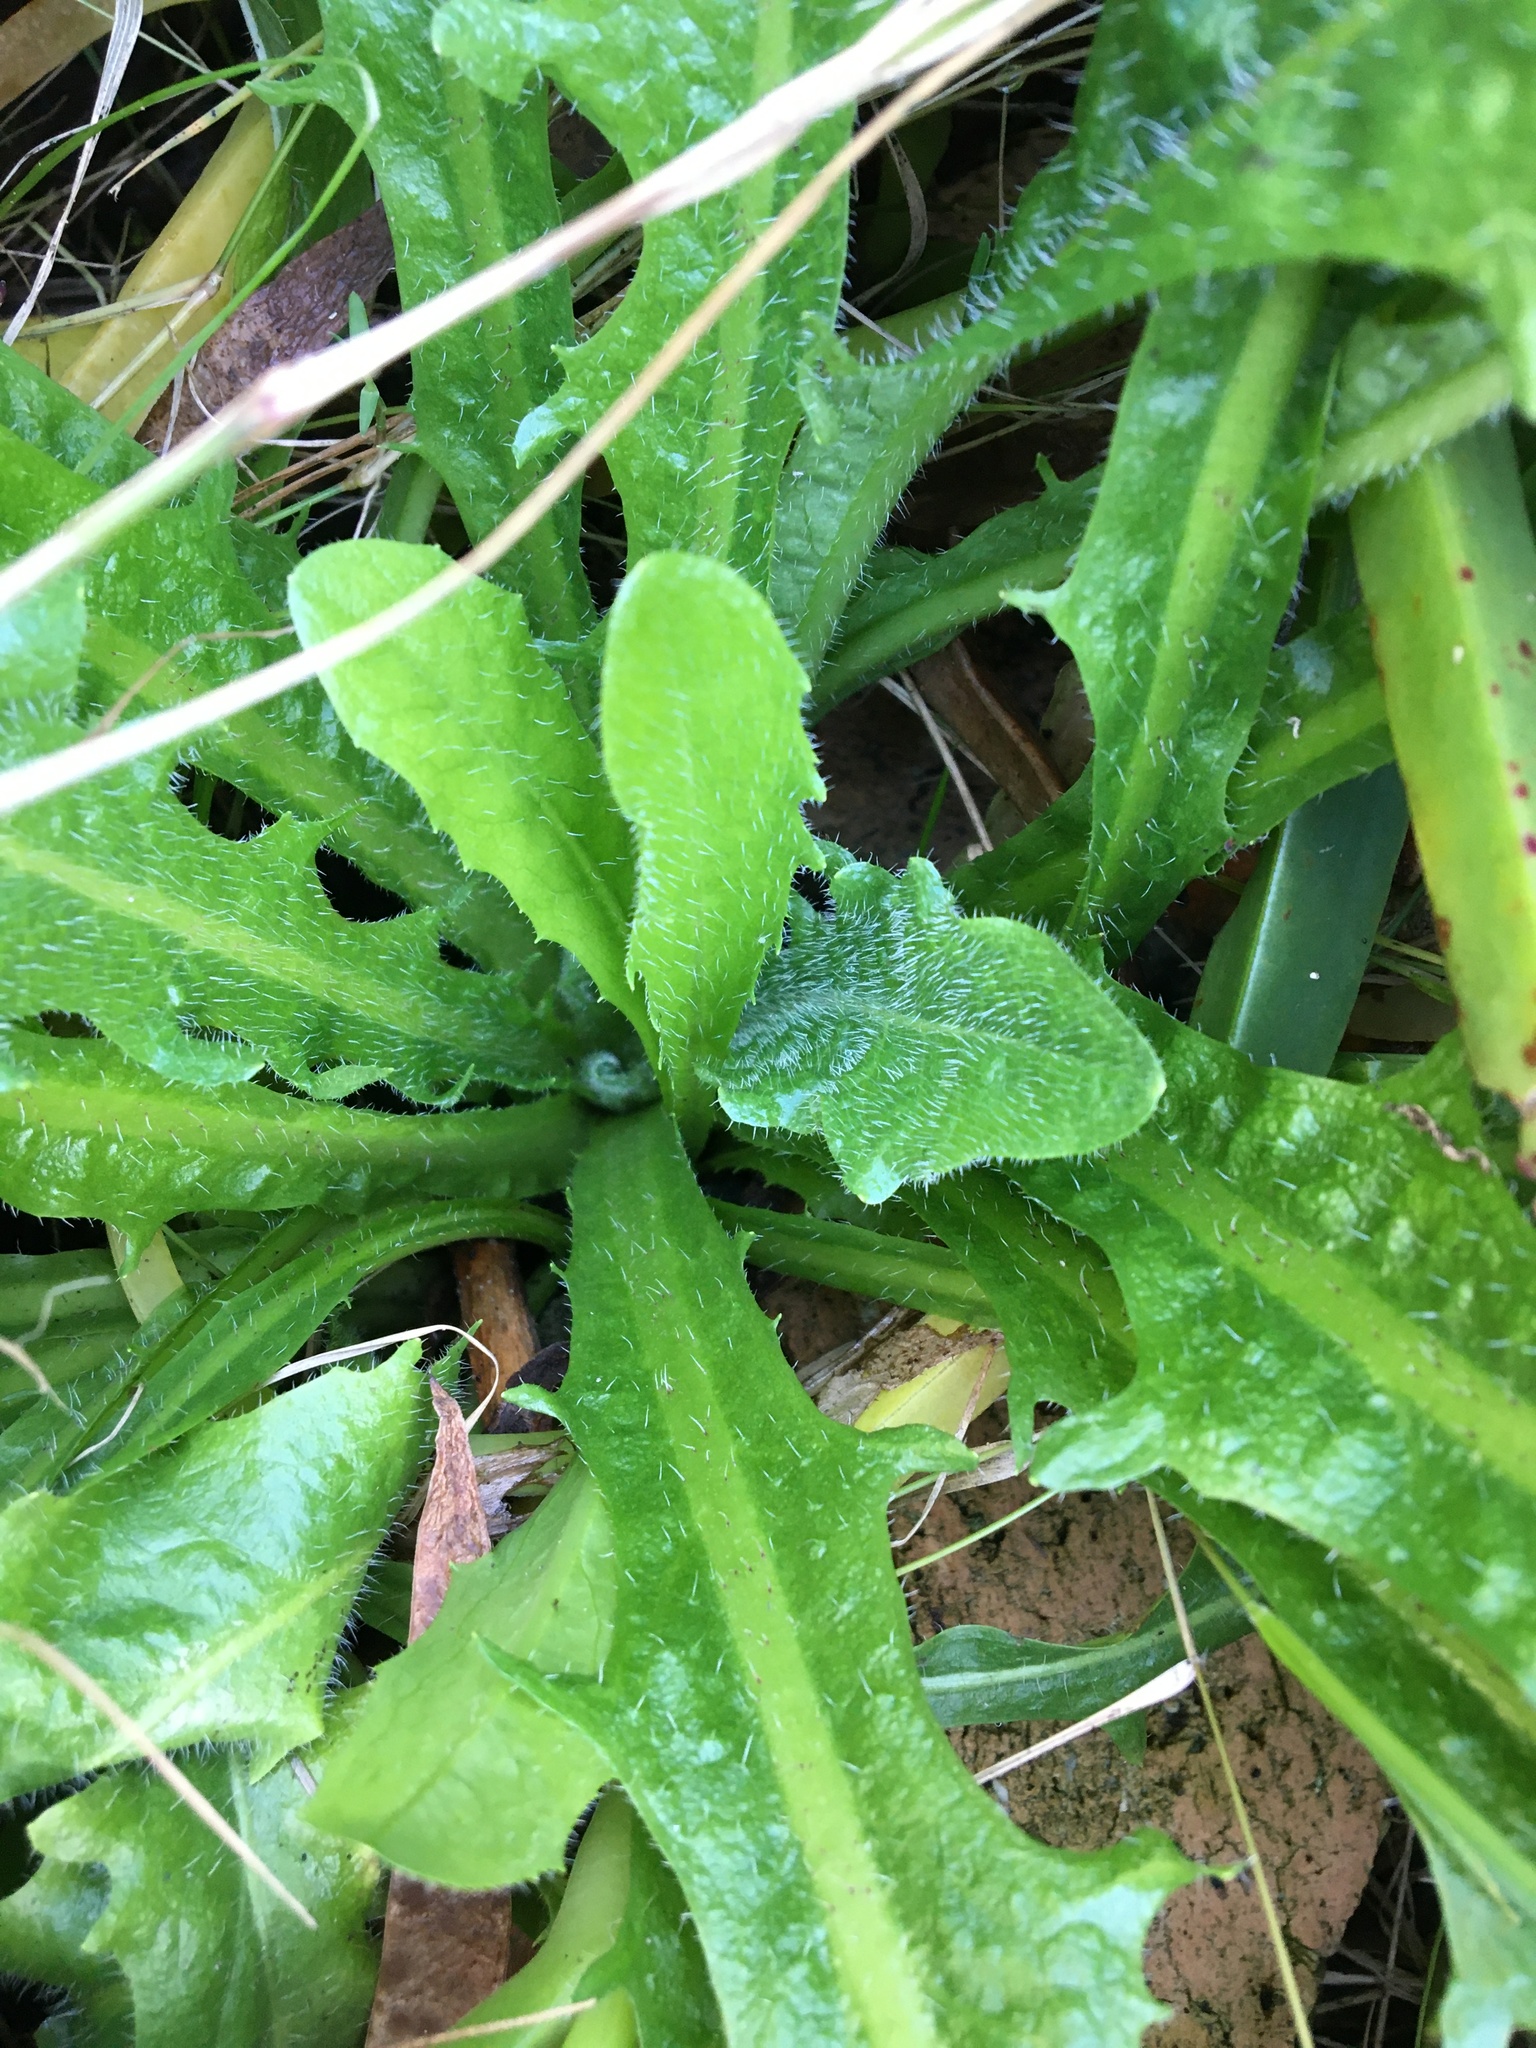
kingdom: Plantae
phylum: Tracheophyta
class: Magnoliopsida
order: Asterales
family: Asteraceae
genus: Hypochaeris
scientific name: Hypochaeris radicata
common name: Flatweed
